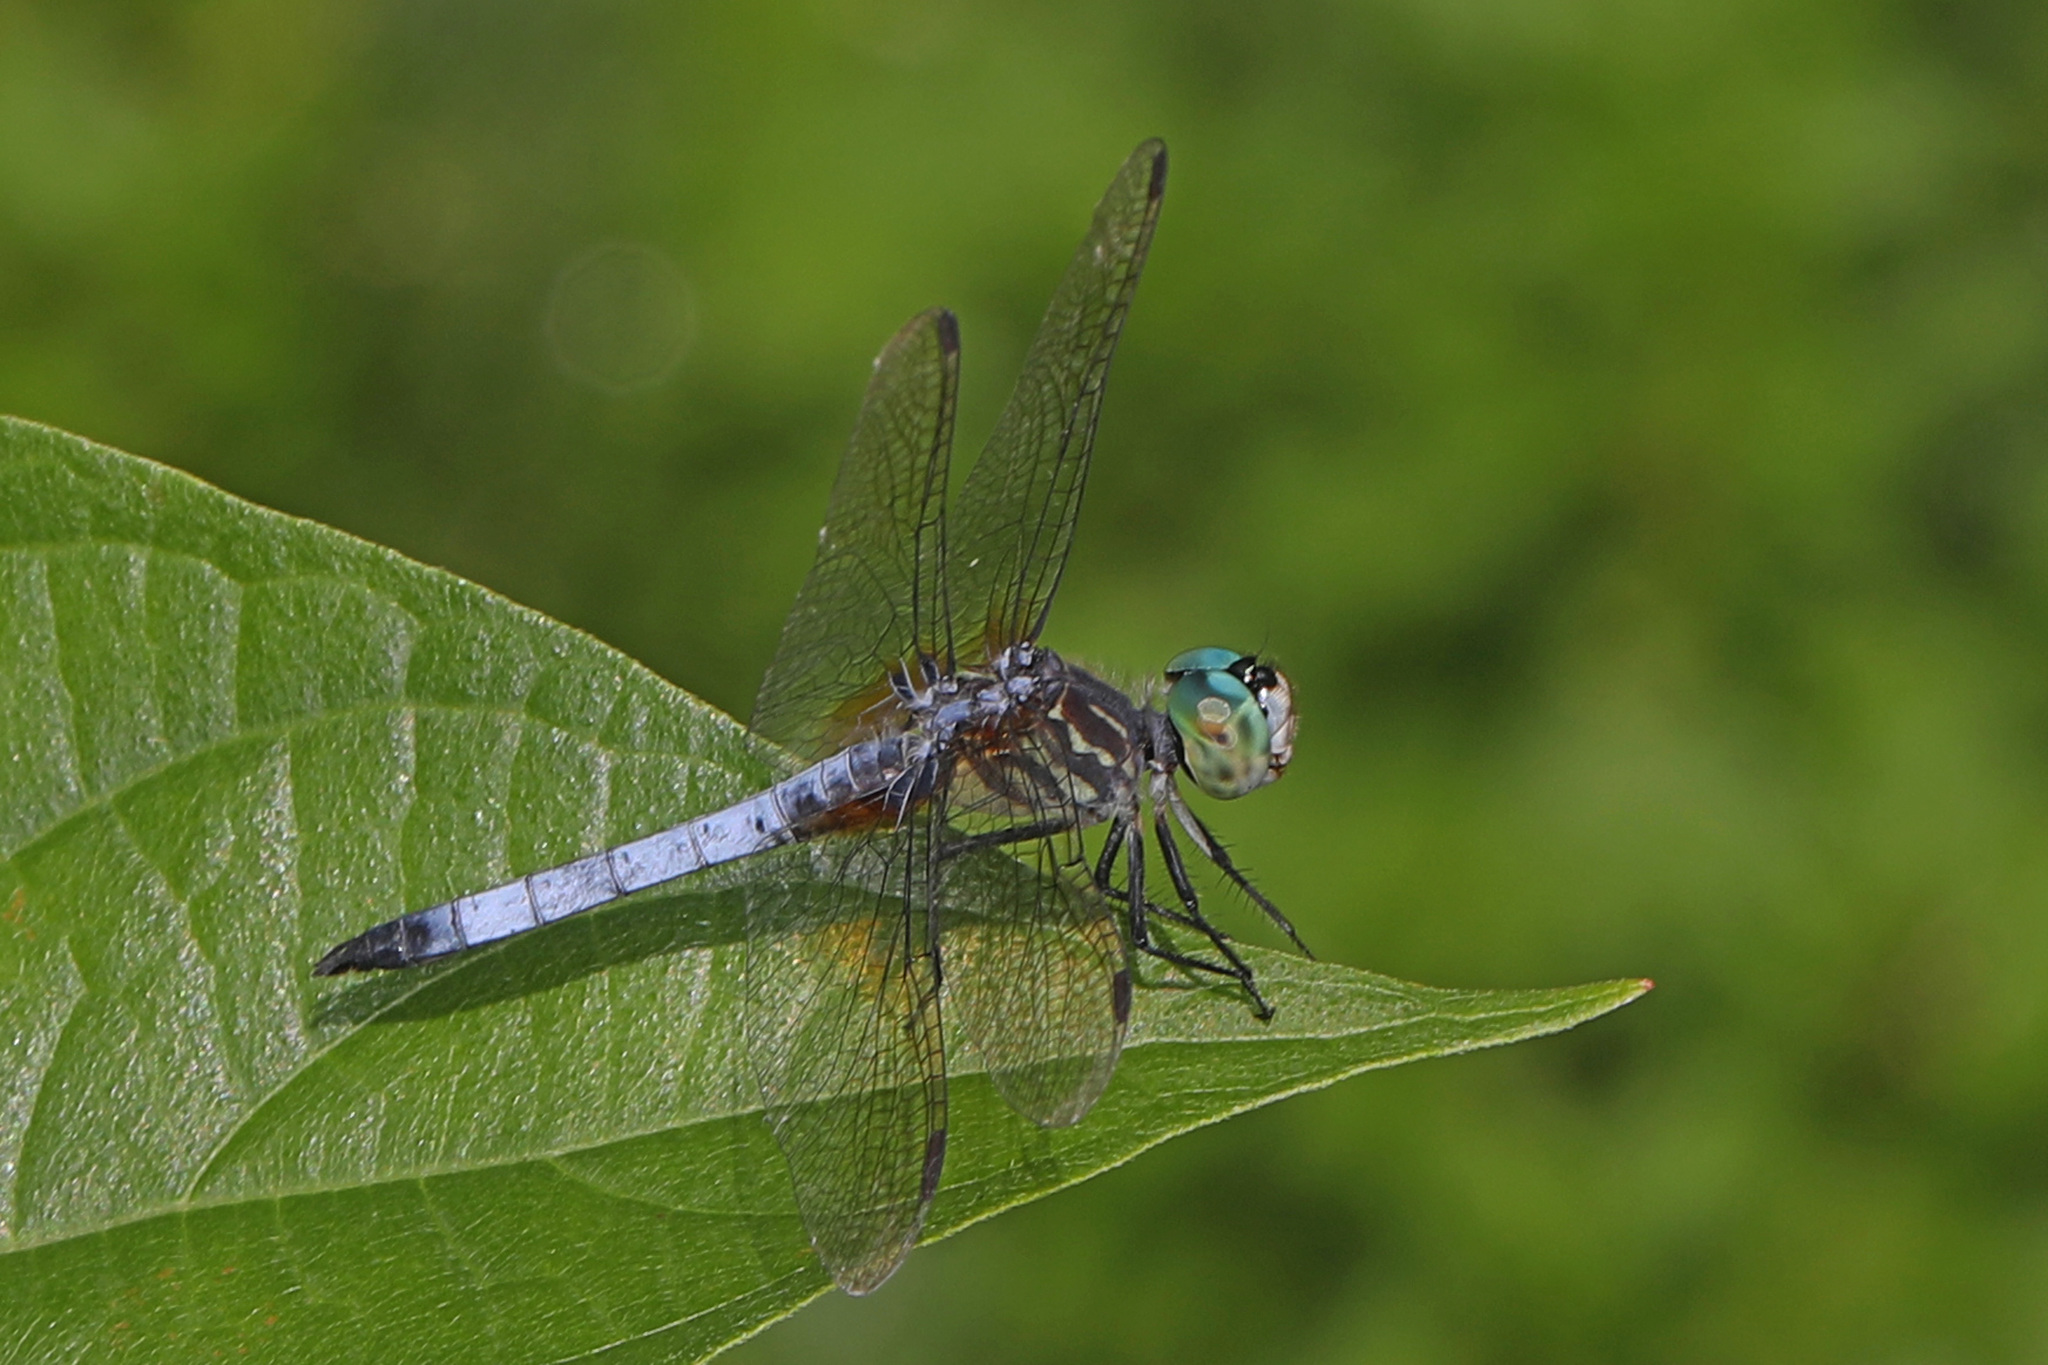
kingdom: Animalia
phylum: Arthropoda
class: Insecta
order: Odonata
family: Libellulidae
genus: Pachydiplax
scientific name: Pachydiplax longipennis
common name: Blue dasher
